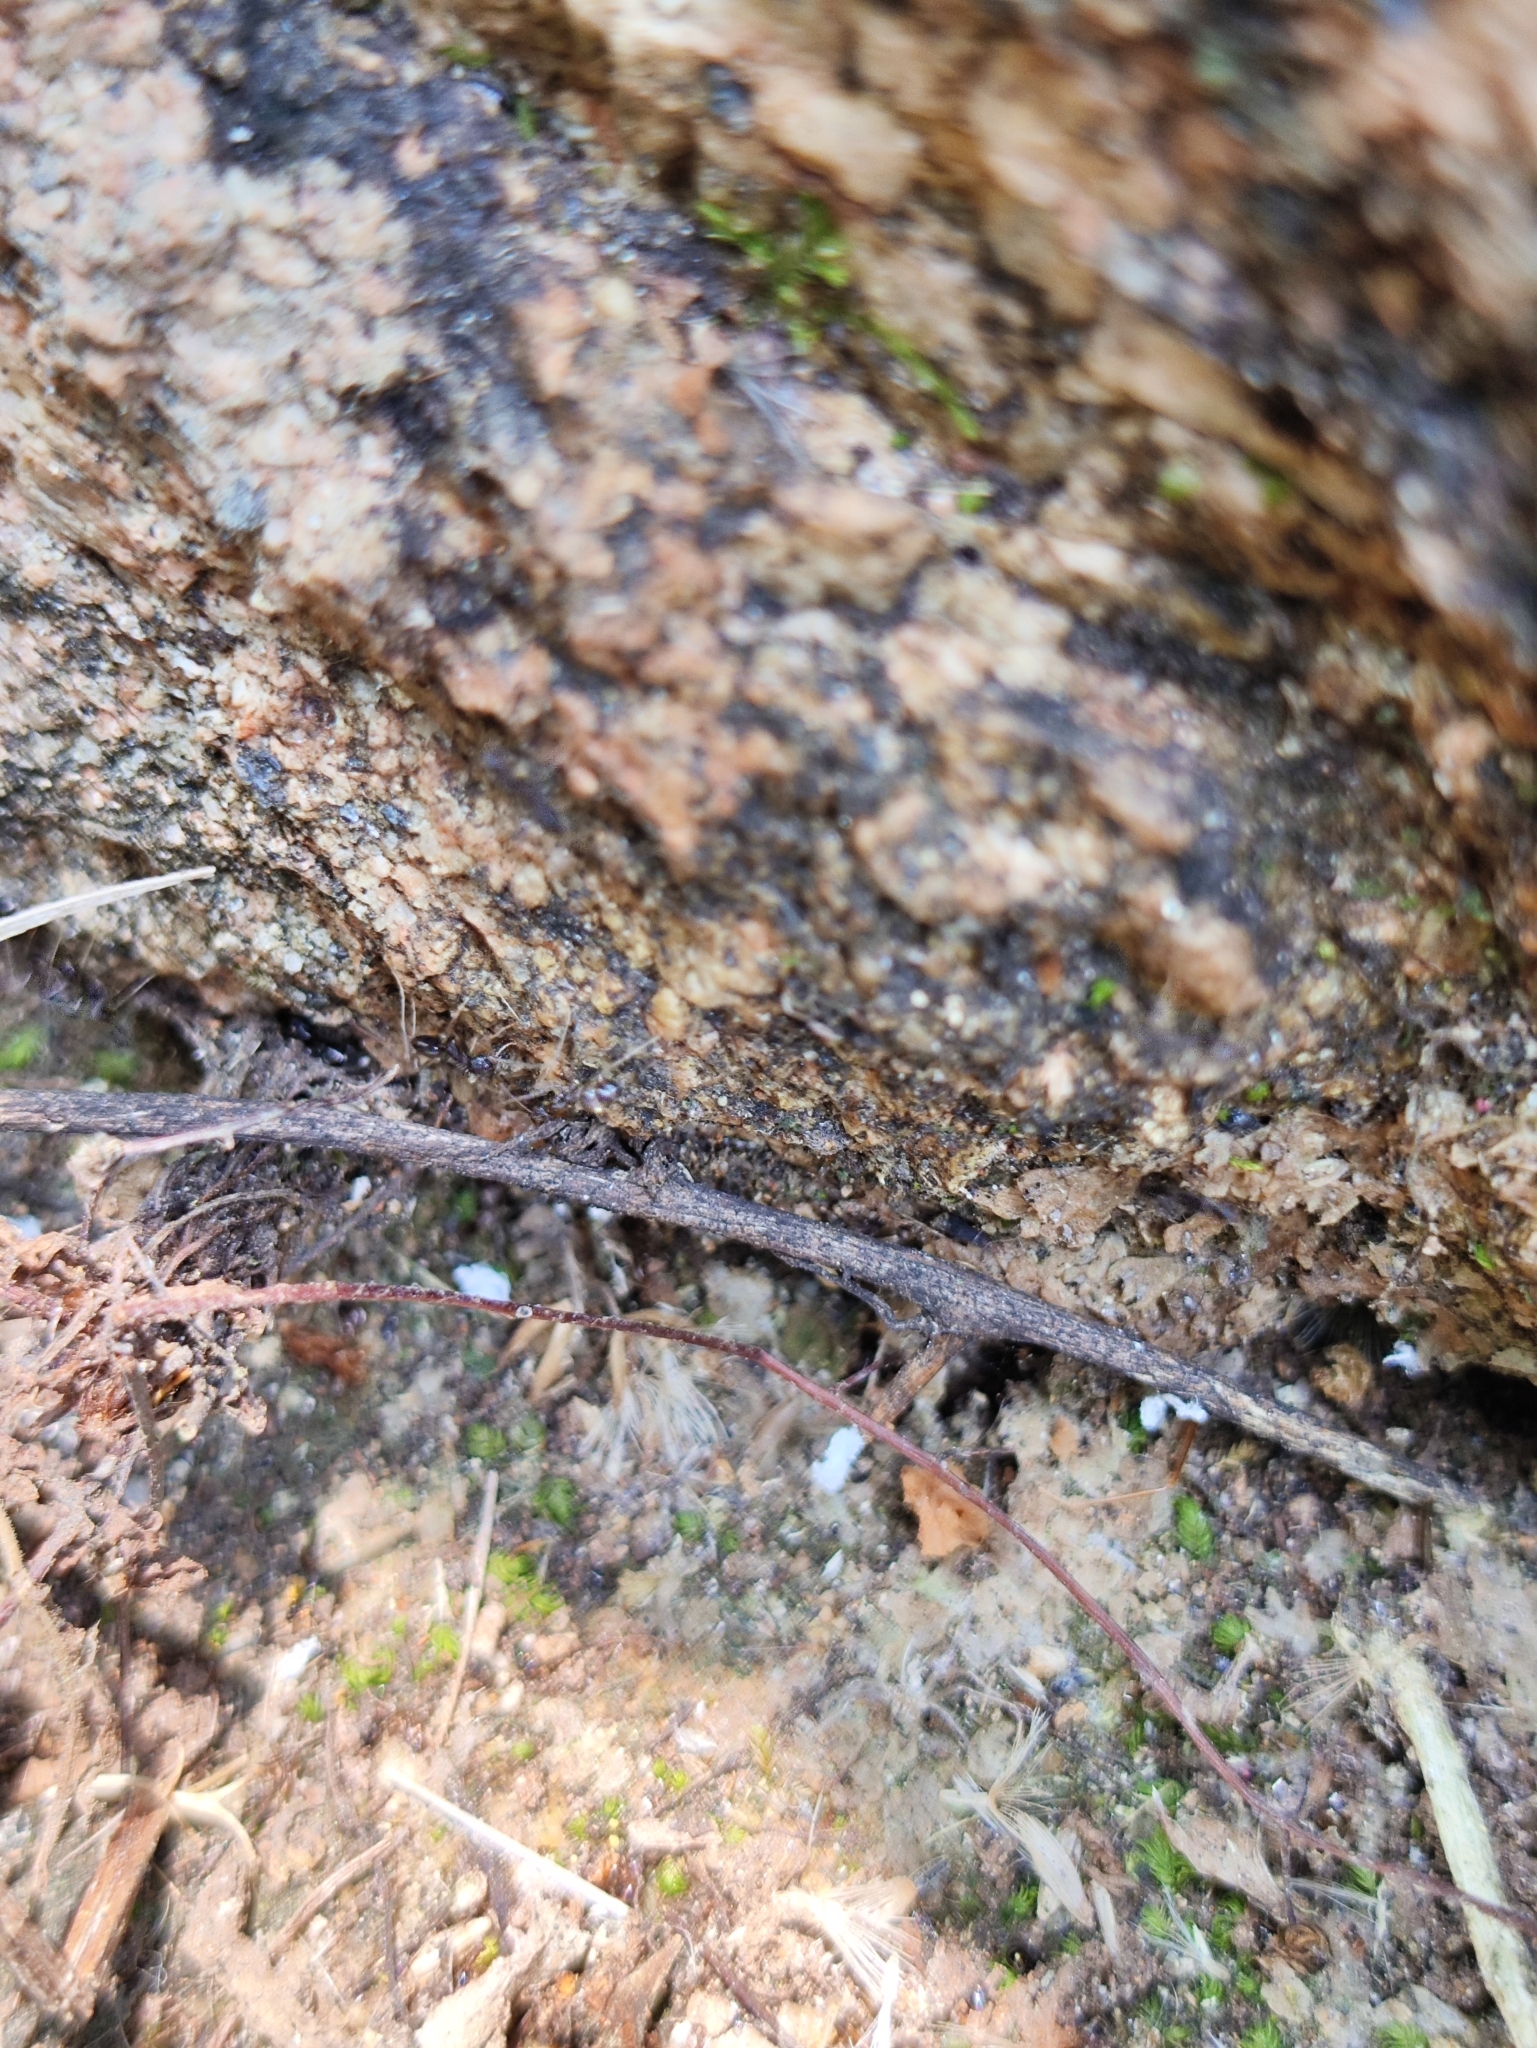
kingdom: Animalia
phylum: Arthropoda
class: Insecta
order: Hymenoptera
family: Formicidae
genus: Paratrechina
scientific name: Paratrechina longicornis
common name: Longhorned crazy ant
